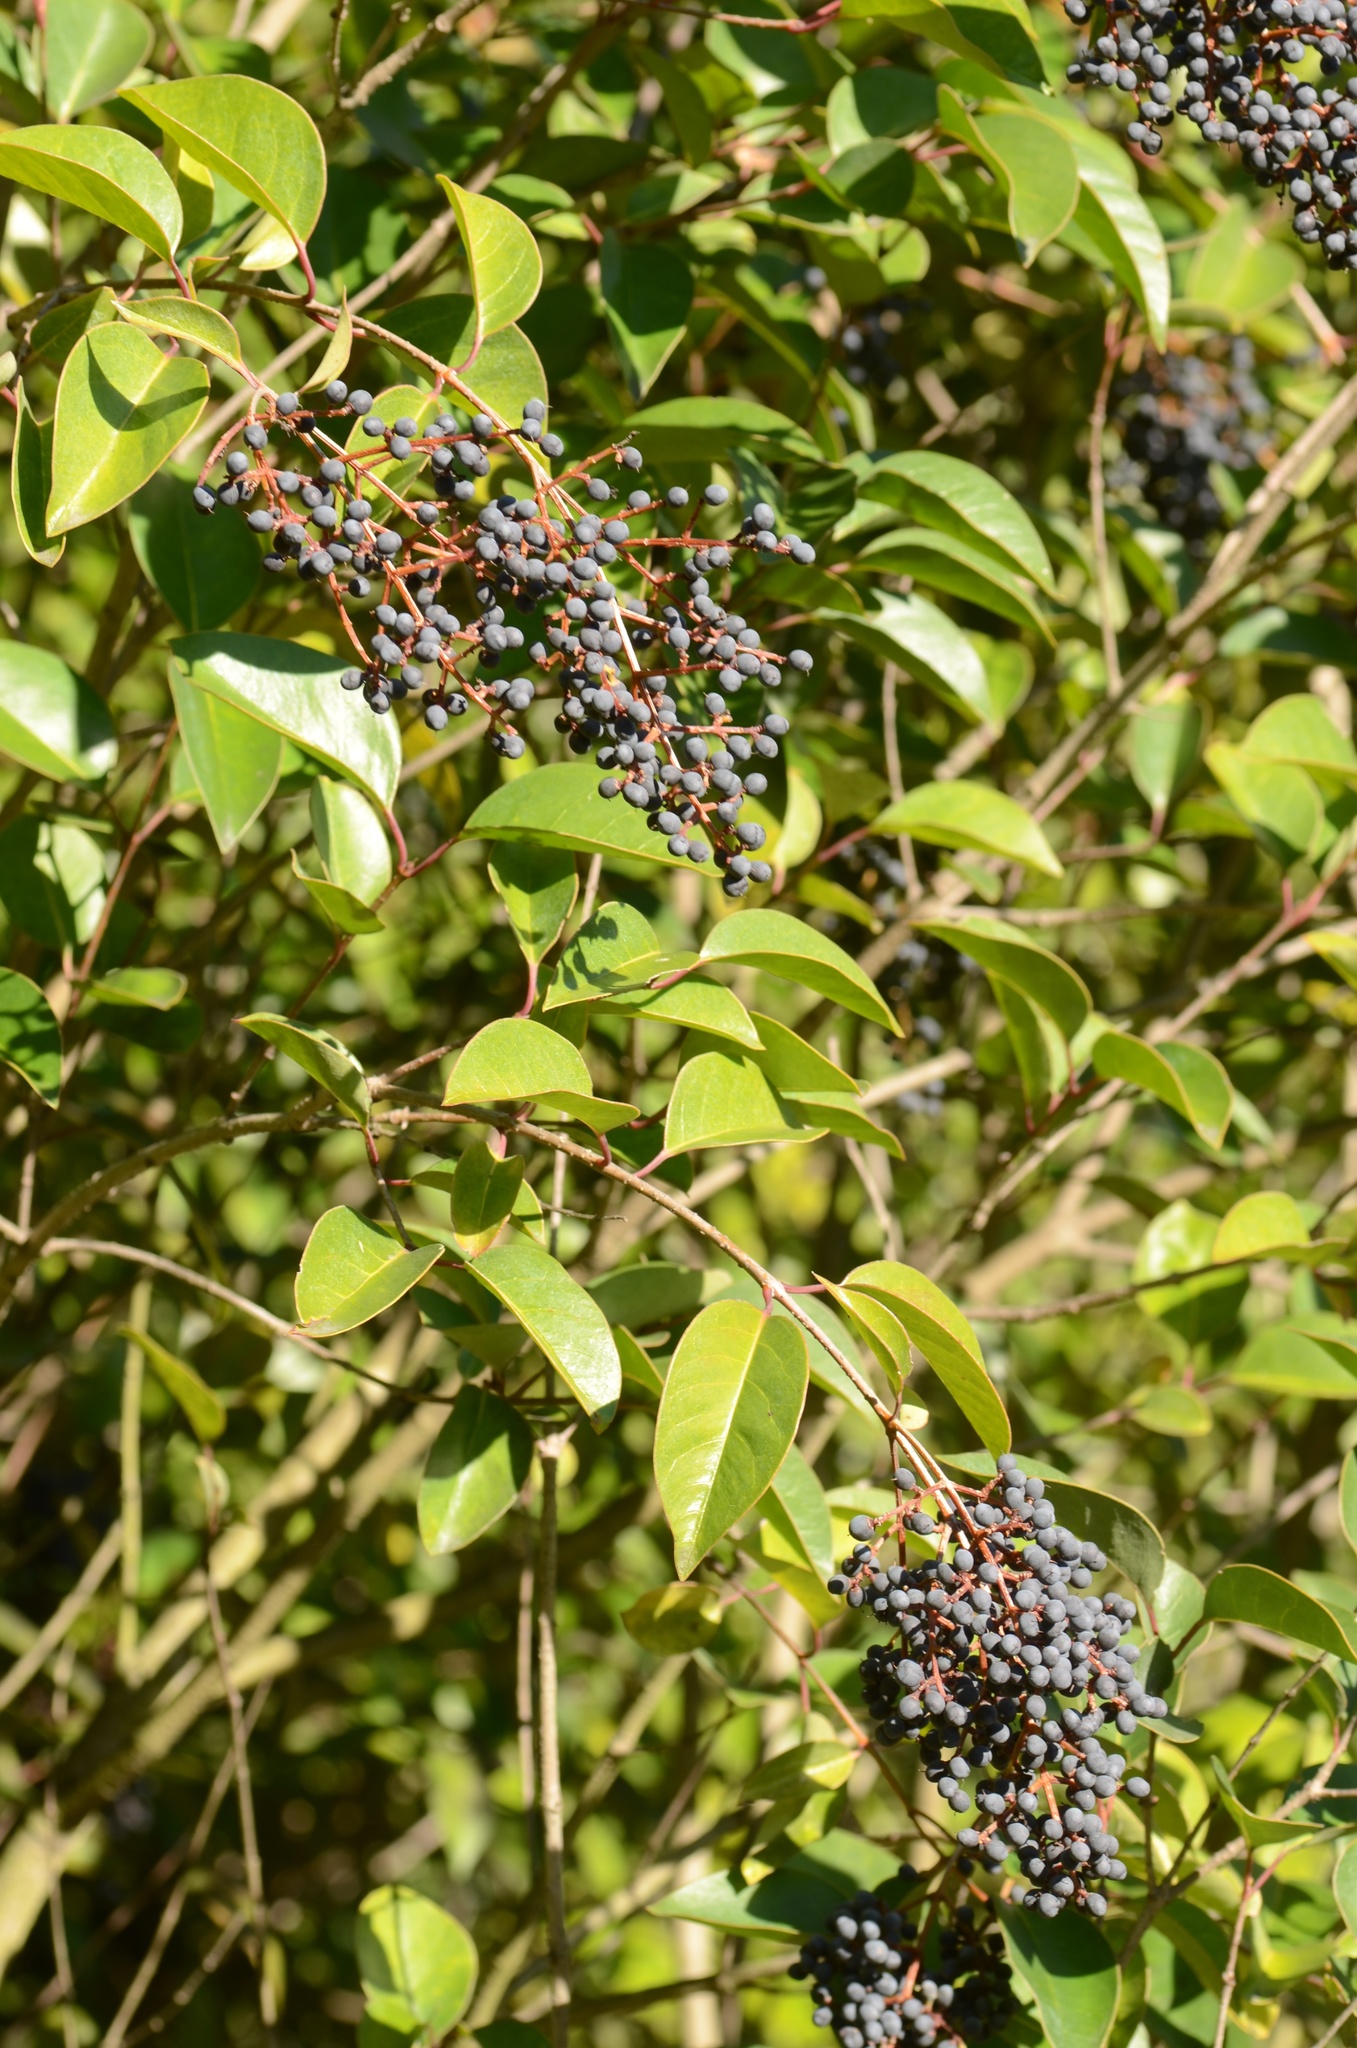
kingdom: Plantae
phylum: Tracheophyta
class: Magnoliopsida
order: Lamiales
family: Oleaceae
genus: Ligustrum
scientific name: Ligustrum lucidum
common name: Glossy privet
